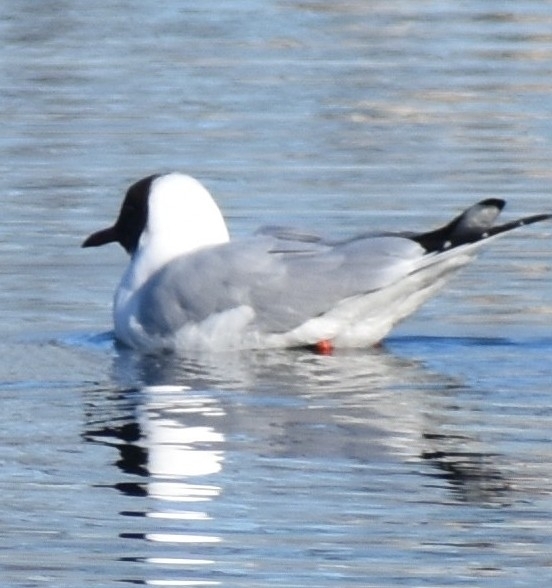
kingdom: Animalia
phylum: Chordata
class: Aves
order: Charadriiformes
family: Laridae
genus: Chroicocephalus
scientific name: Chroicocephalus ridibundus
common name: Black-headed gull
